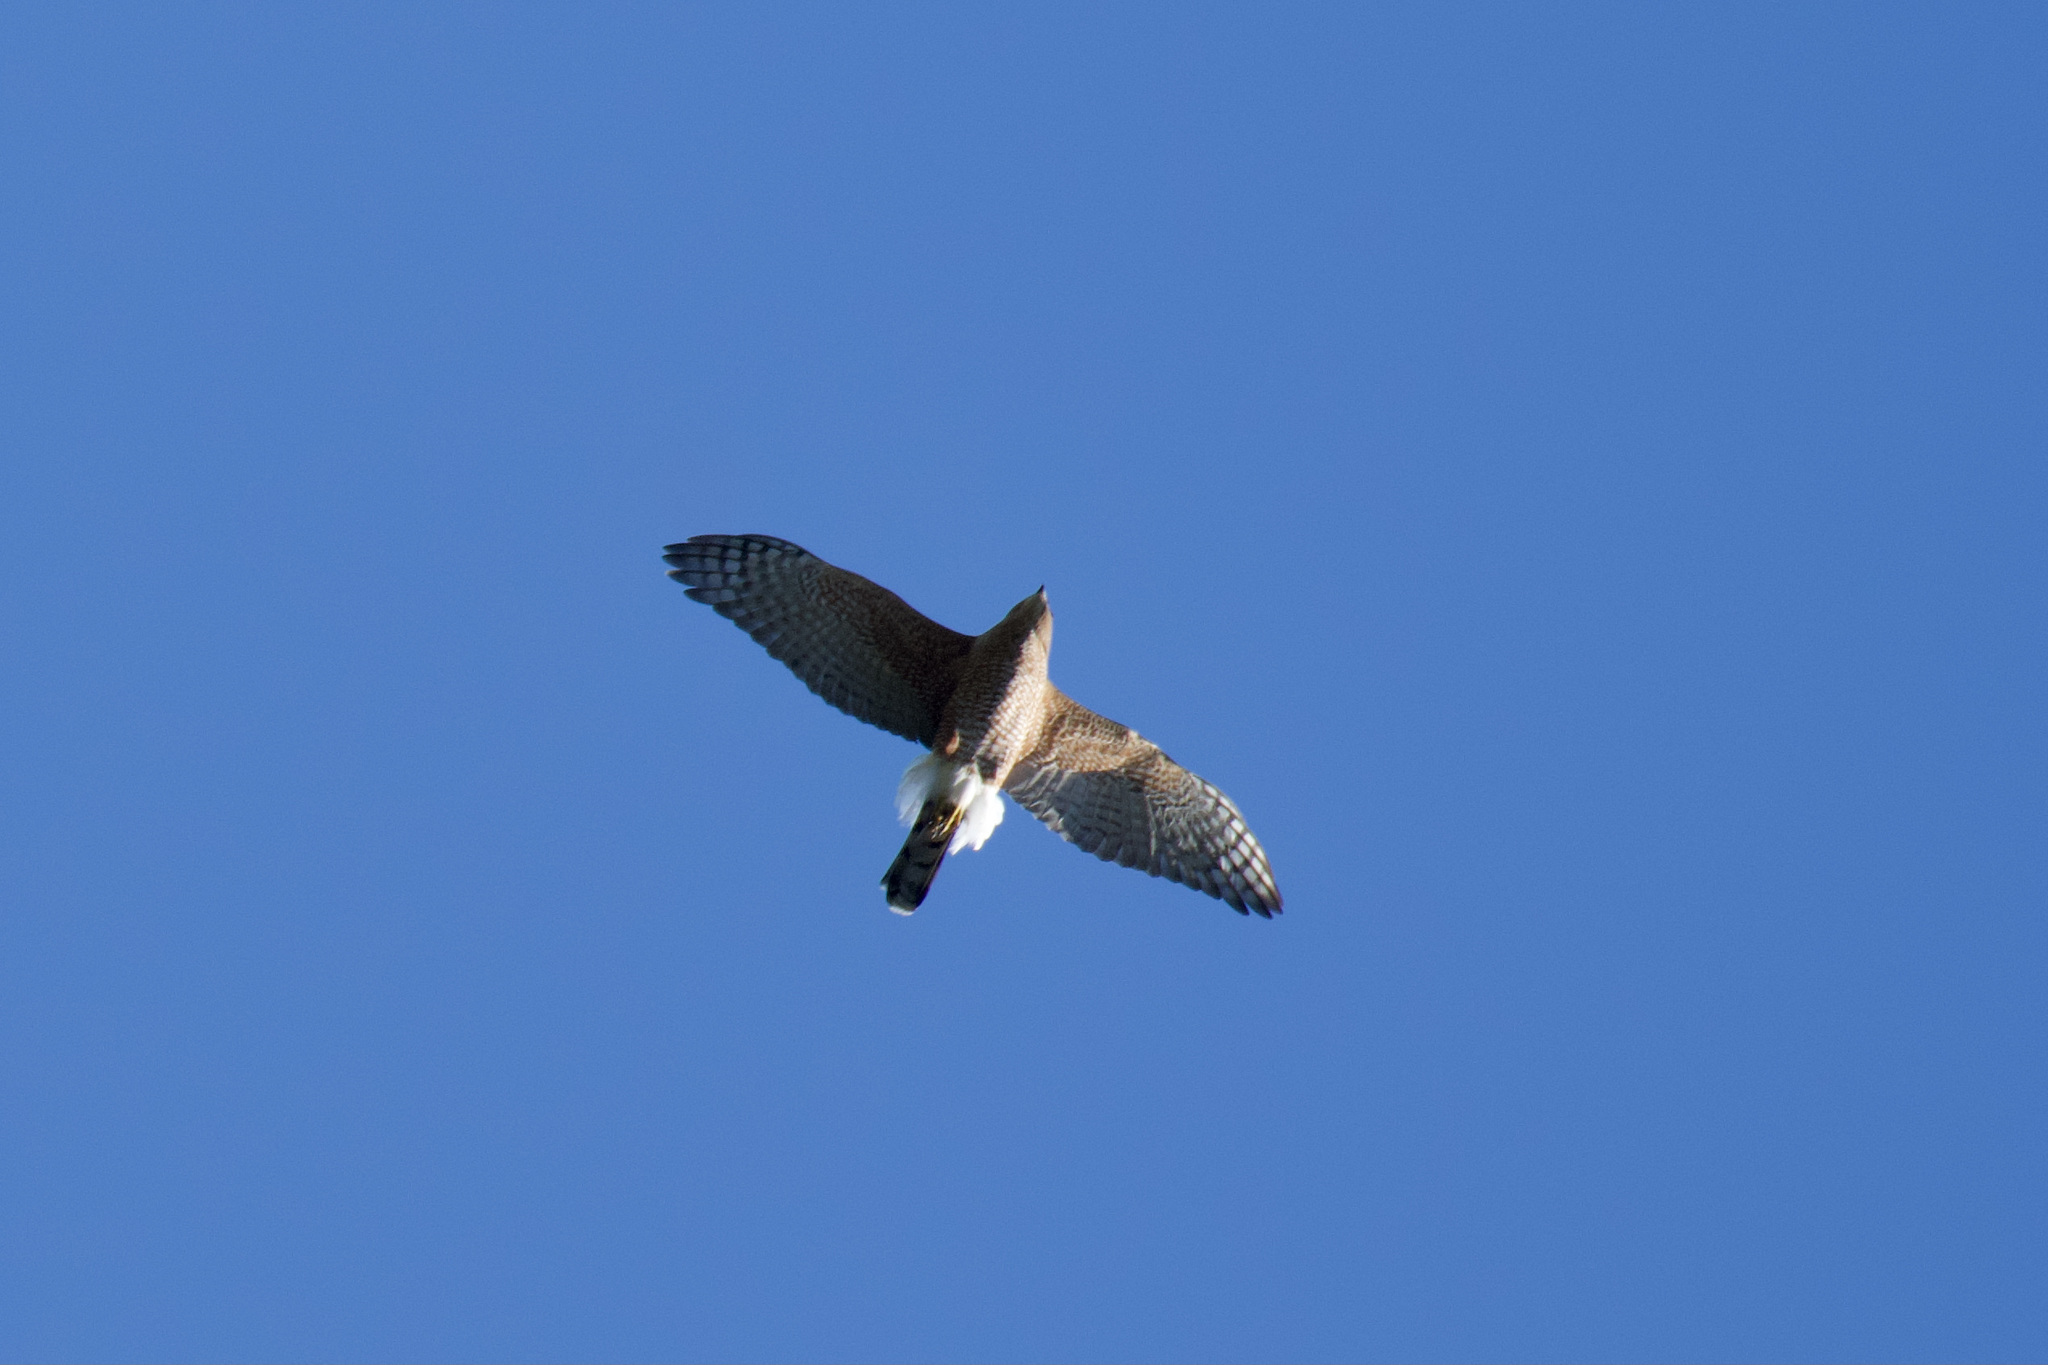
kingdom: Animalia
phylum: Chordata
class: Aves
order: Accipitriformes
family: Accipitridae
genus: Accipiter
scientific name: Accipiter cooperii
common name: Cooper's hawk
